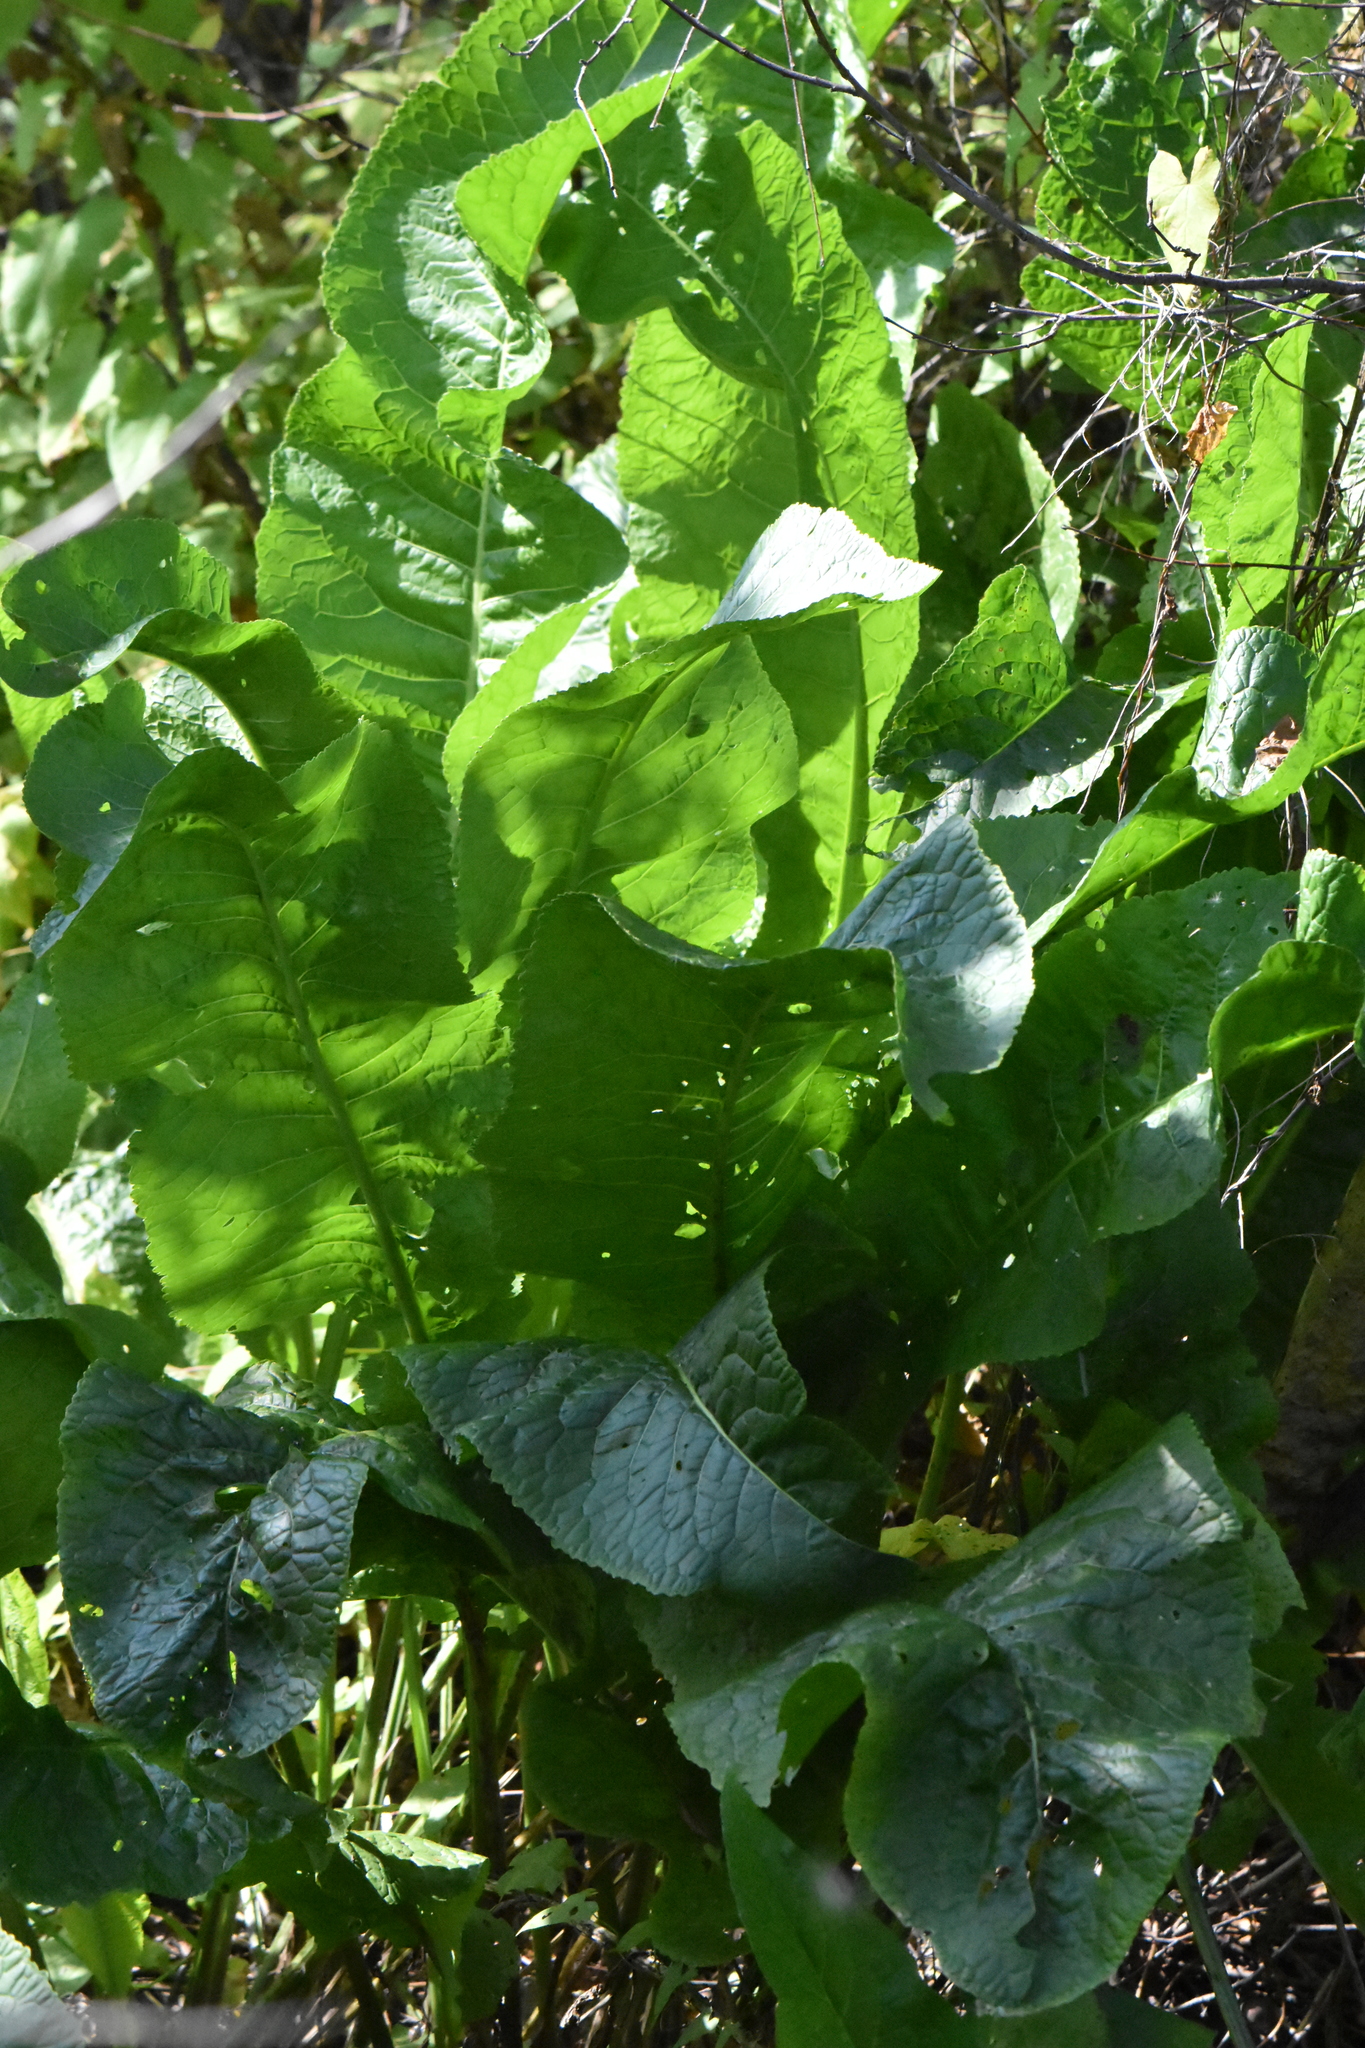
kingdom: Plantae
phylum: Tracheophyta
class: Magnoliopsida
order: Brassicales
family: Brassicaceae
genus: Armoracia
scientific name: Armoracia rusticana
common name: Horseradish
